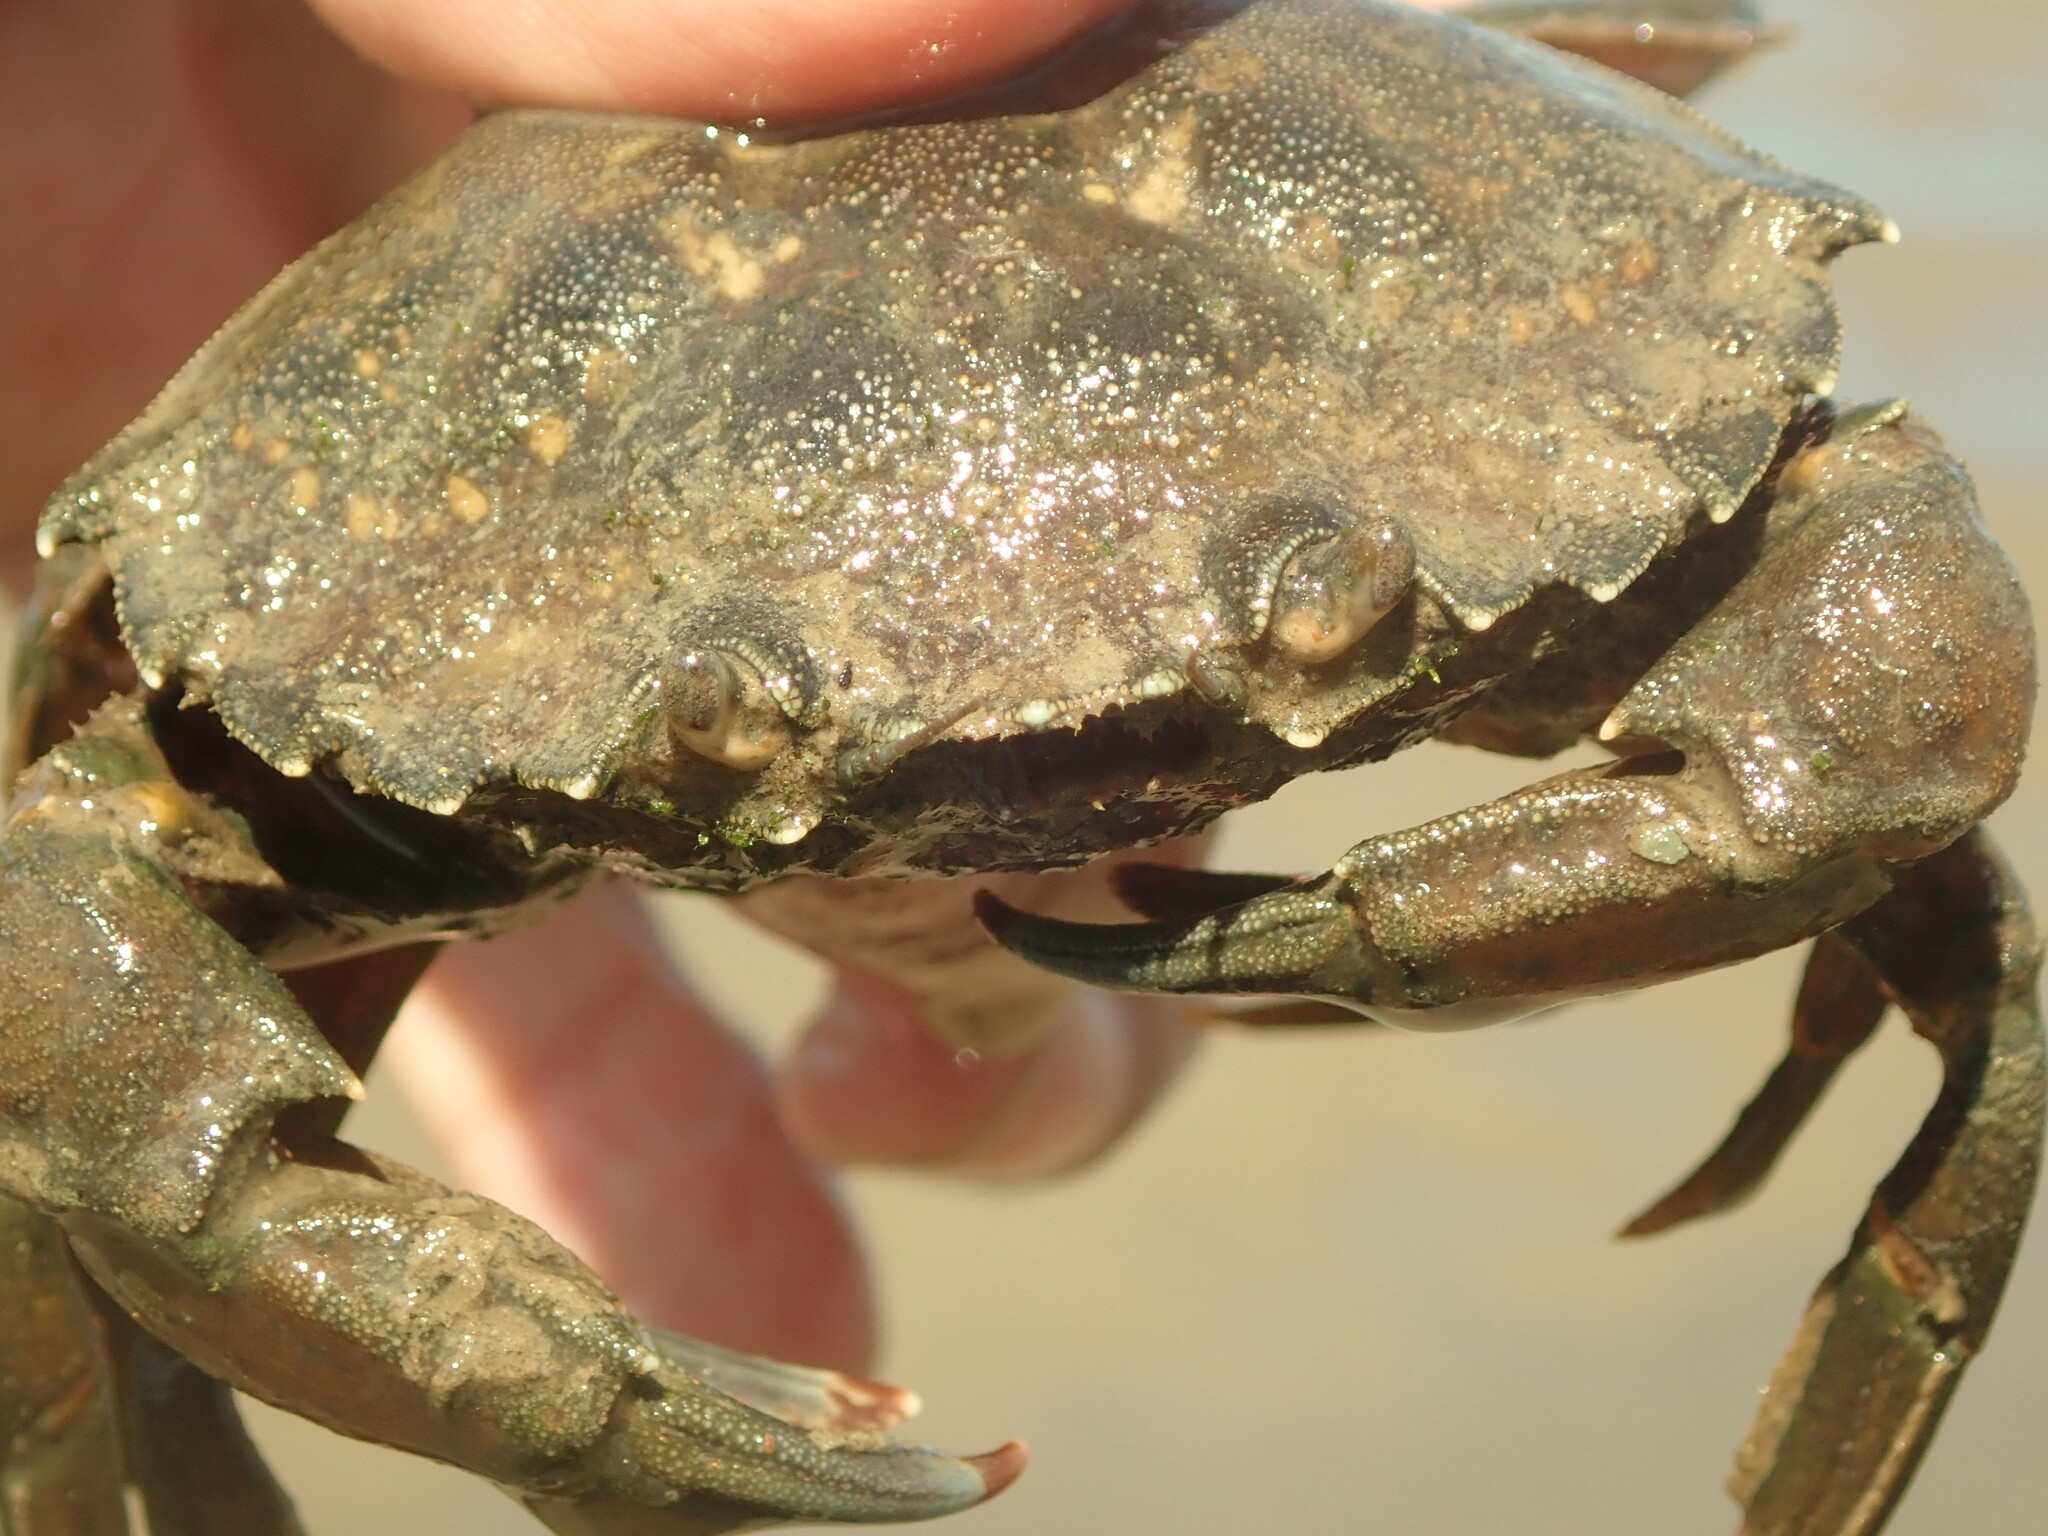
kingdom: Animalia
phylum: Arthropoda
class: Malacostraca
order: Decapoda
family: Carcinidae
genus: Carcinus
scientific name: Carcinus maenas
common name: European green crab
